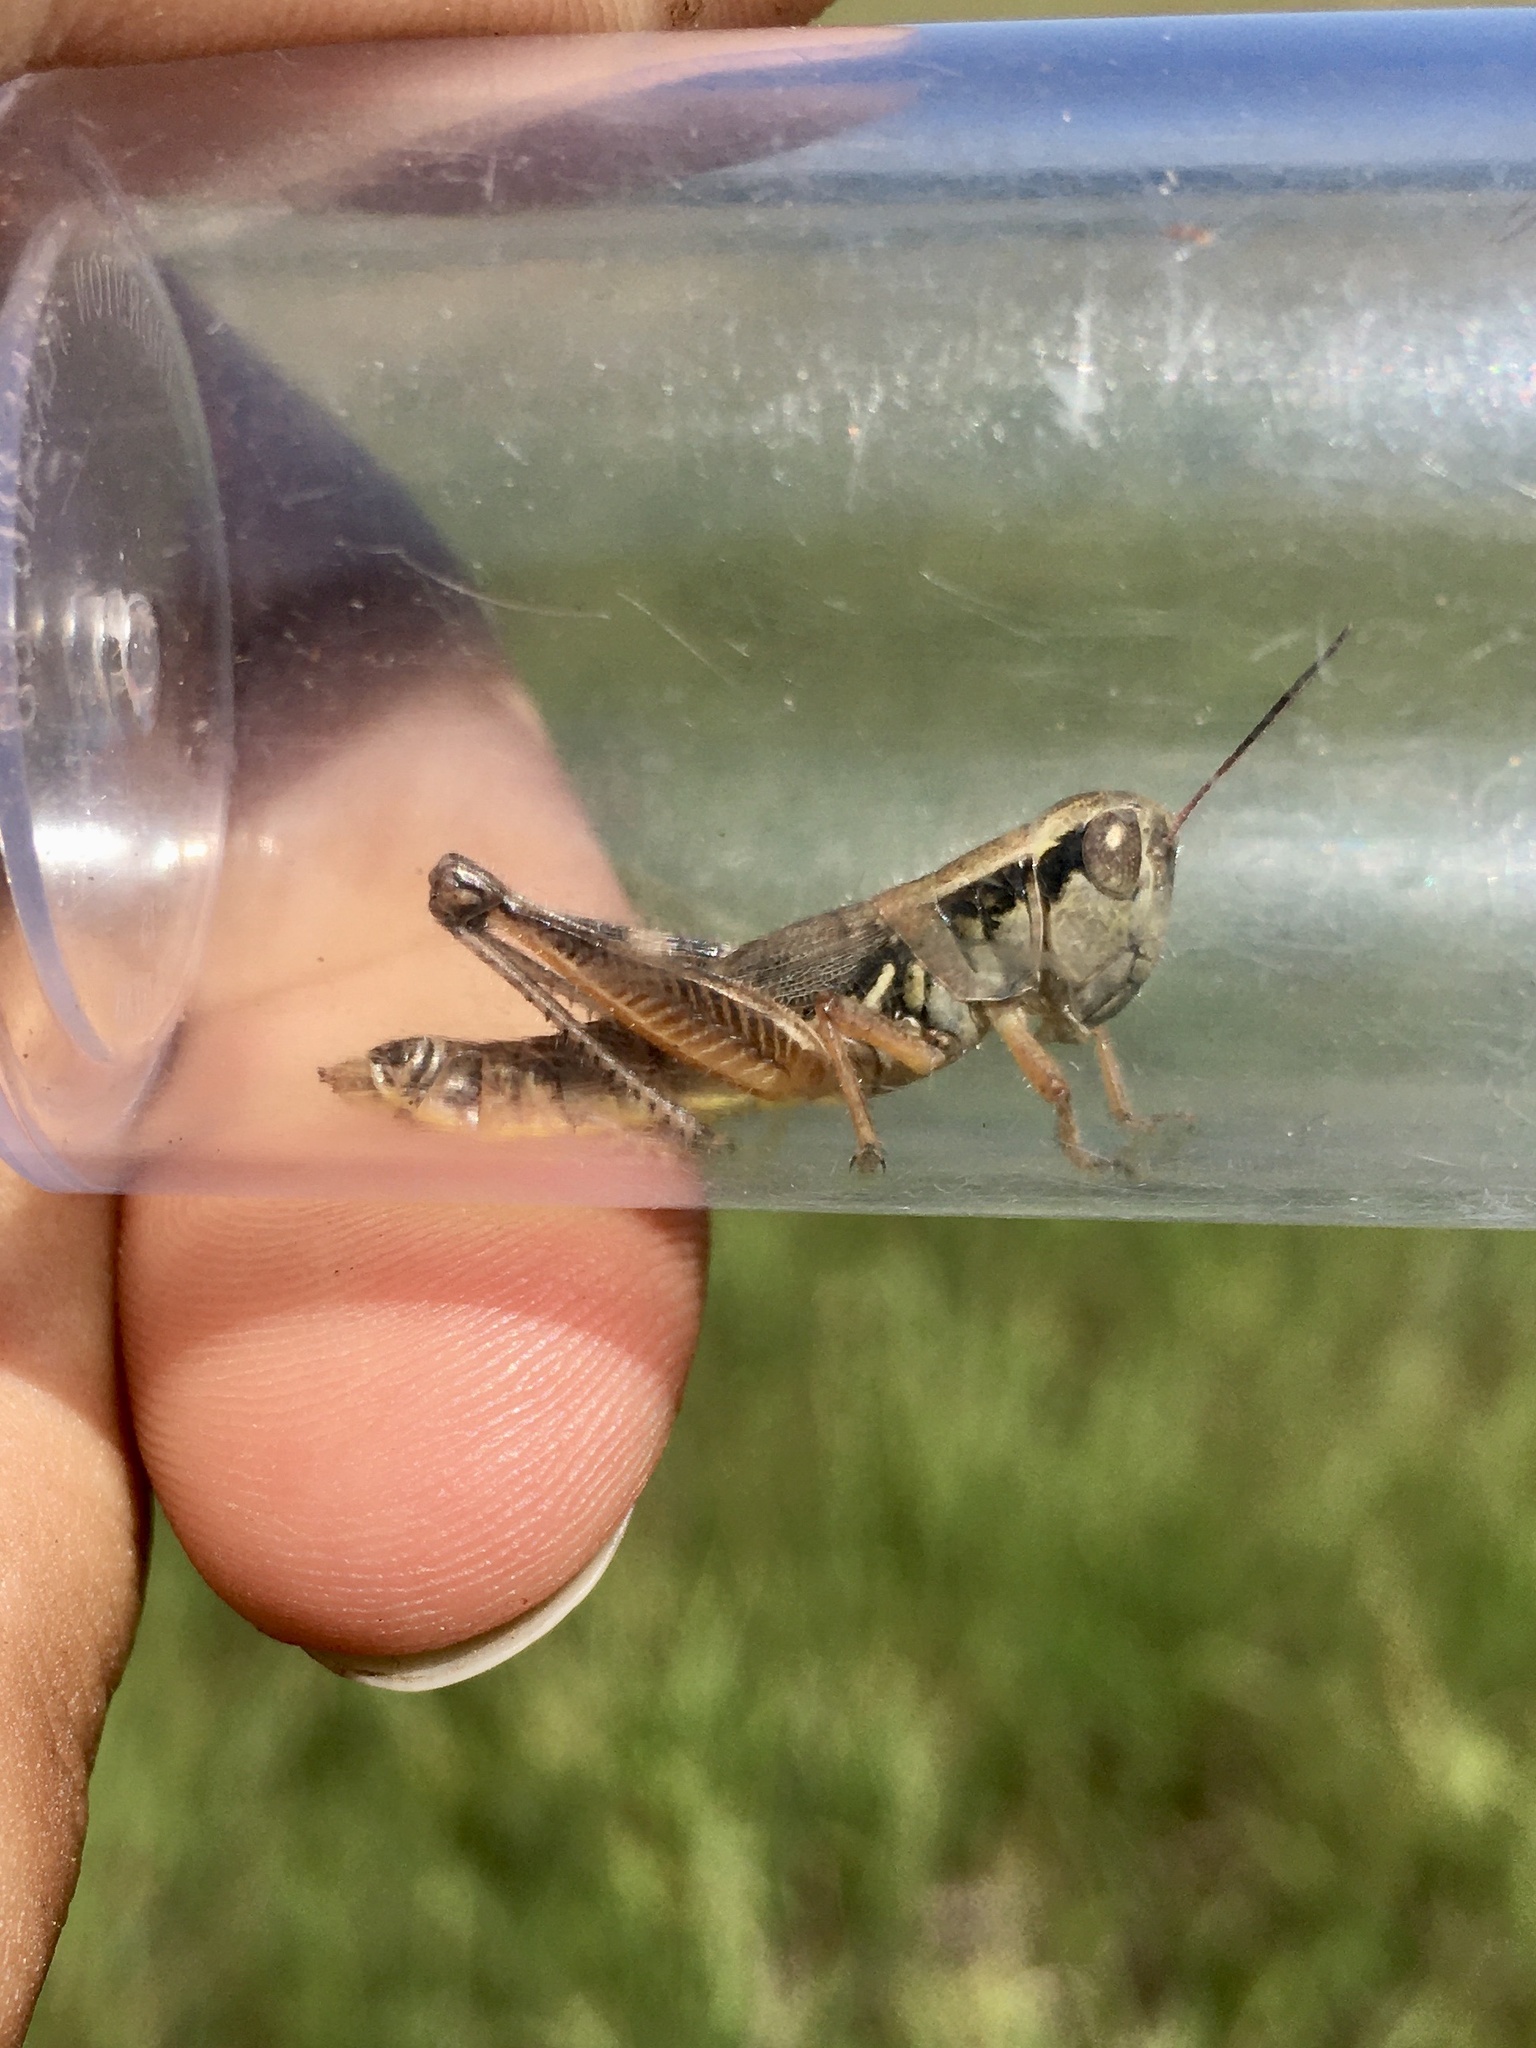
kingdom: Animalia
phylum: Arthropoda
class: Insecta
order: Orthoptera
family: Acrididae
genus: Phoetaliotes
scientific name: Phoetaliotes nebrascensis
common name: Large-headed grasshopper
